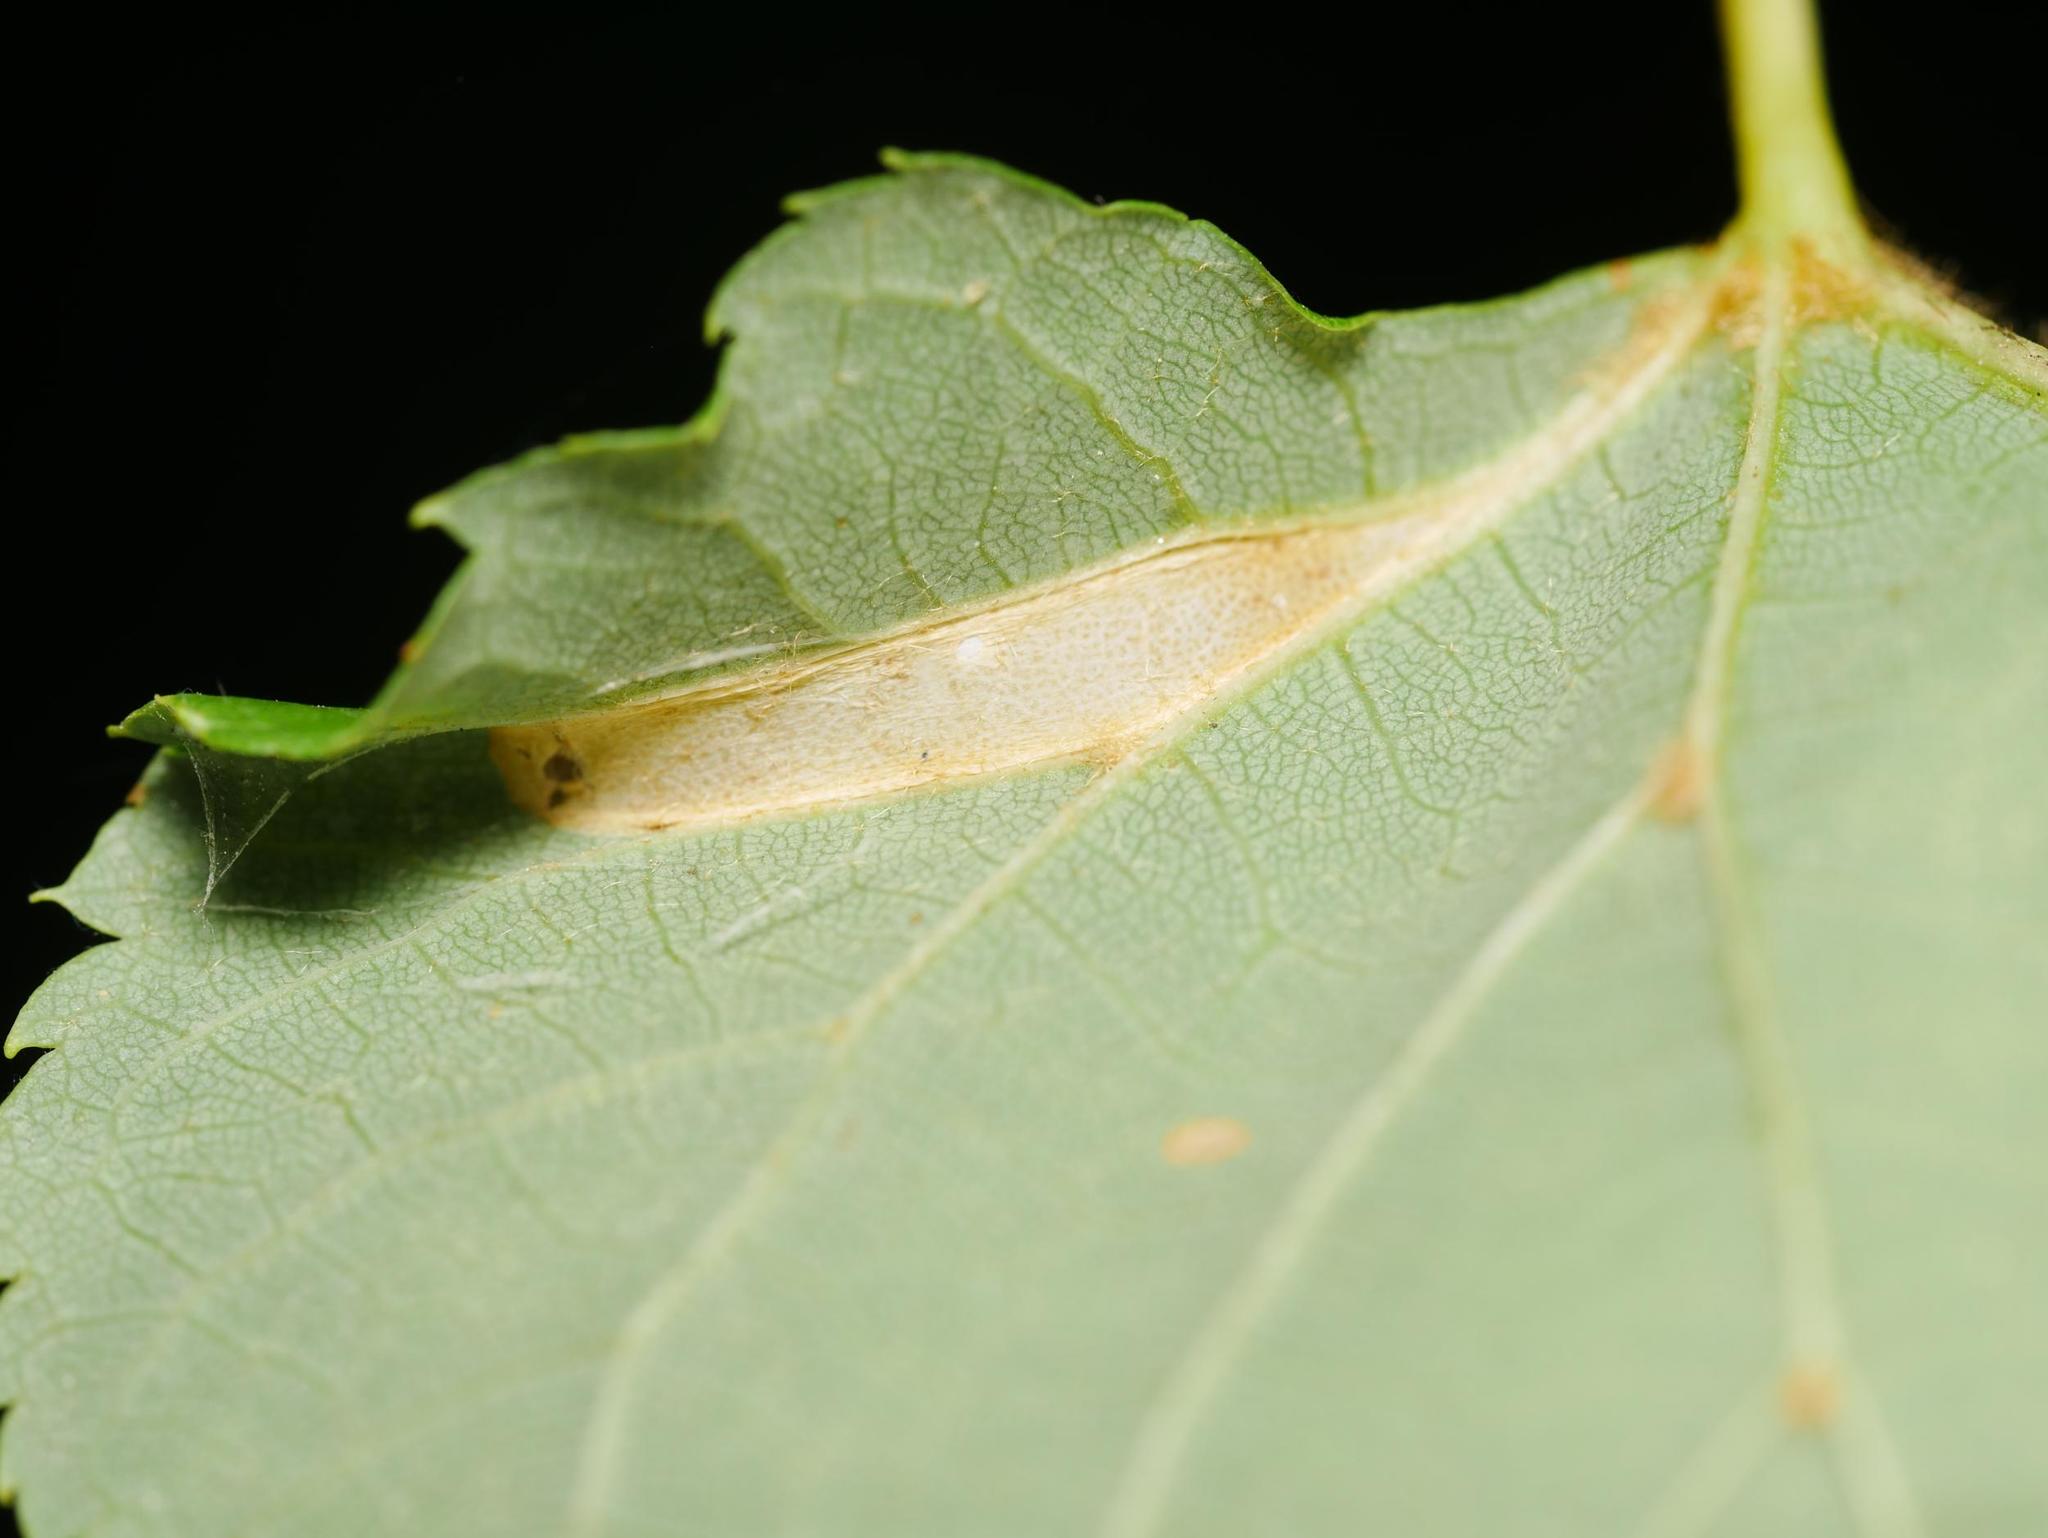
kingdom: Animalia
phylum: Arthropoda
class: Insecta
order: Lepidoptera
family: Gracillariidae
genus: Phyllonorycter
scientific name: Phyllonorycter issikii
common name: Linden midget
